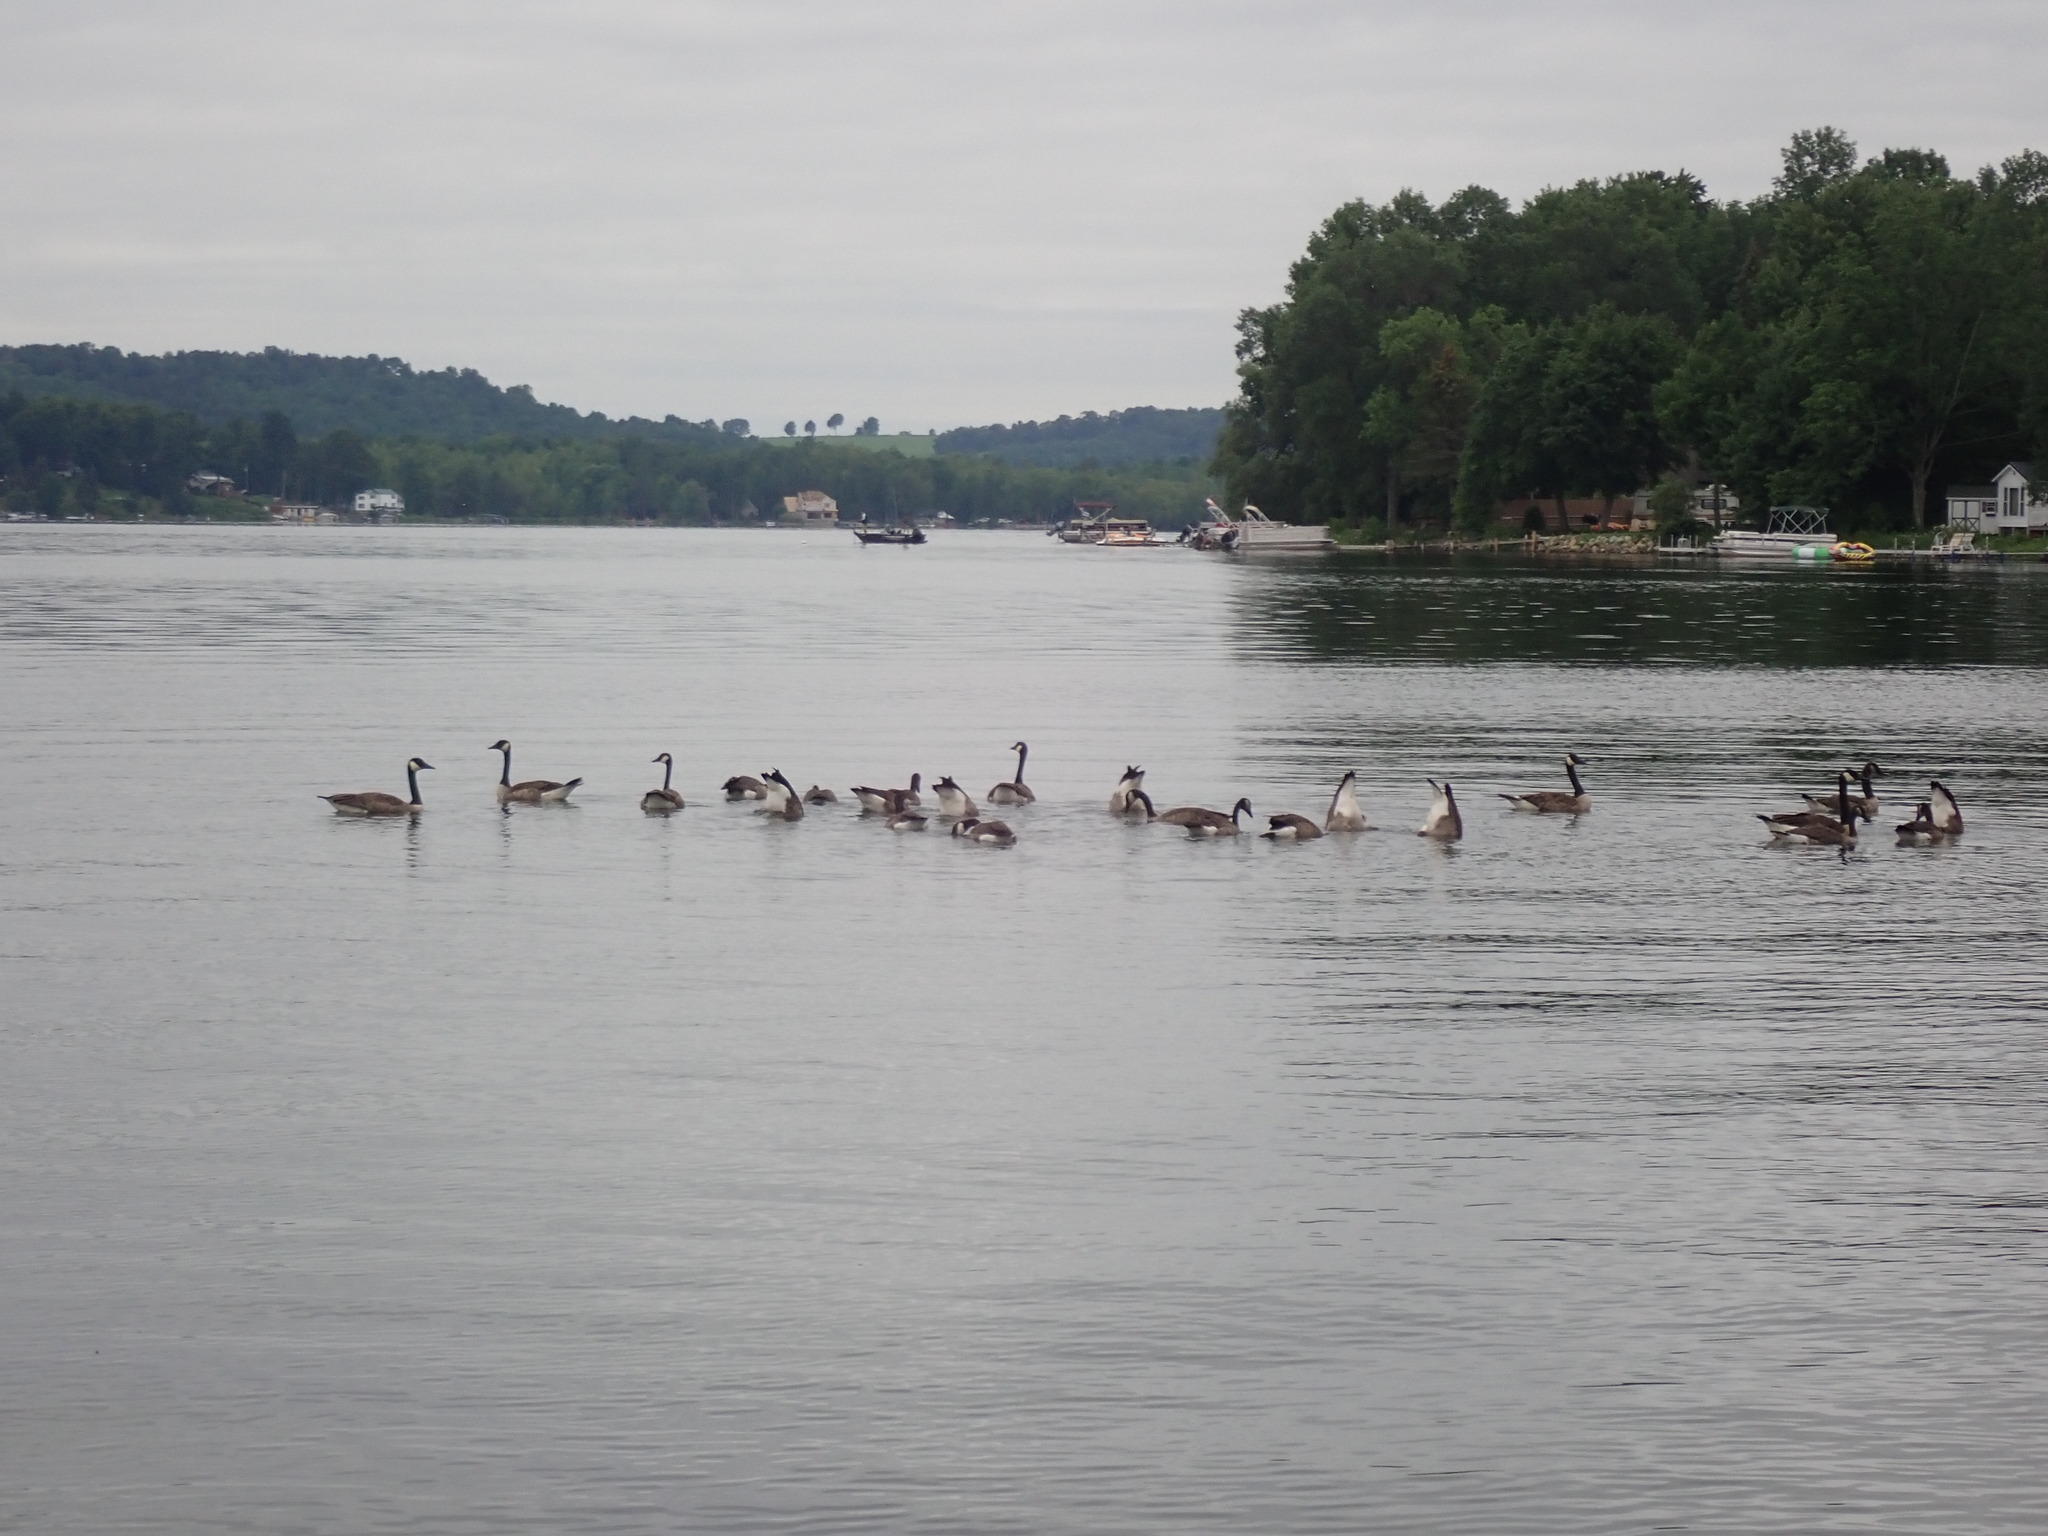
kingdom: Animalia
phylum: Chordata
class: Aves
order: Anseriformes
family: Anatidae
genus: Branta
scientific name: Branta canadensis
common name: Canada goose
